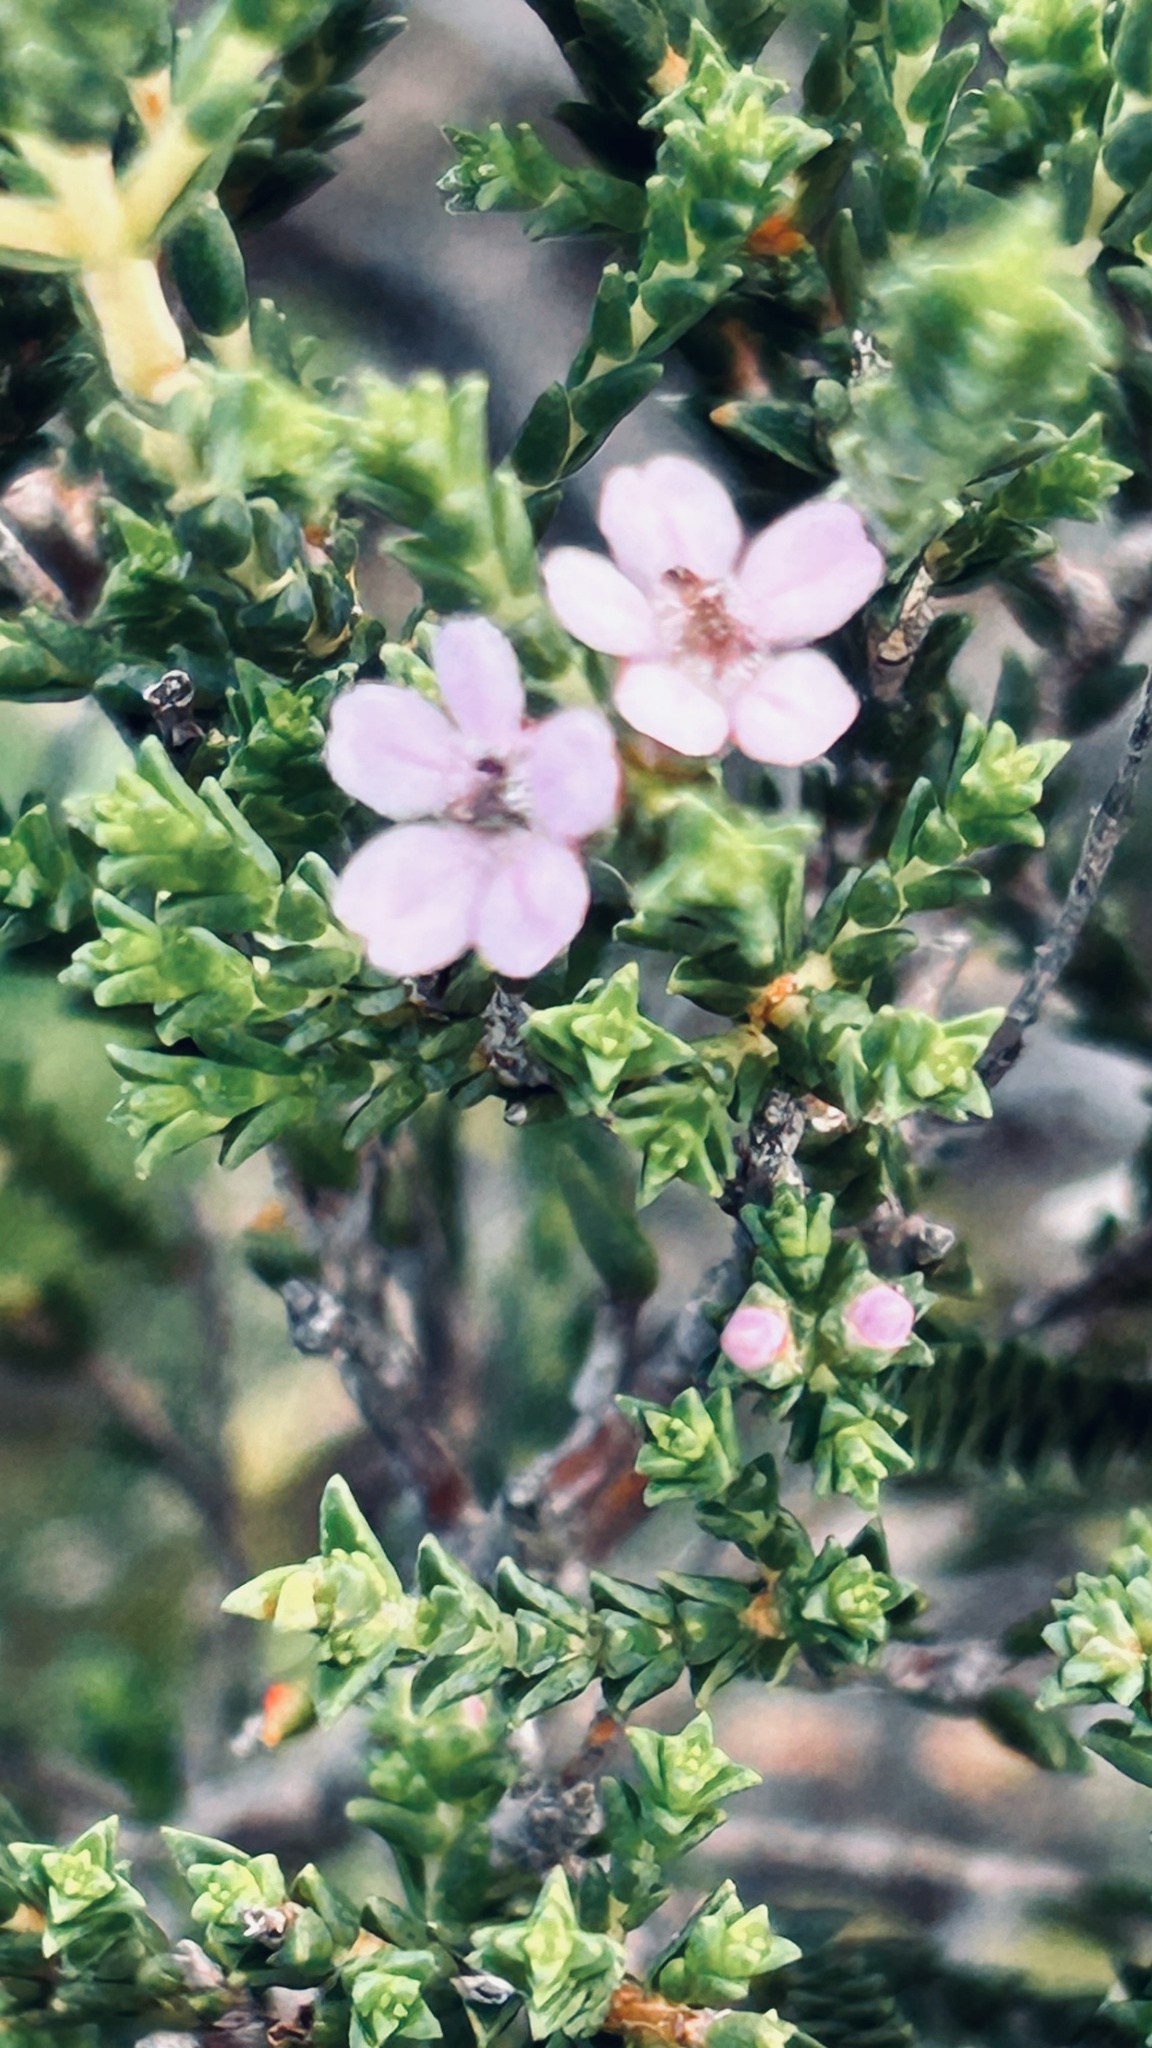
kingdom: Plantae
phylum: Tracheophyta
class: Magnoliopsida
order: Sapindales
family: Rutaceae
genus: Euchaetis
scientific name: Euchaetis albertiniana
